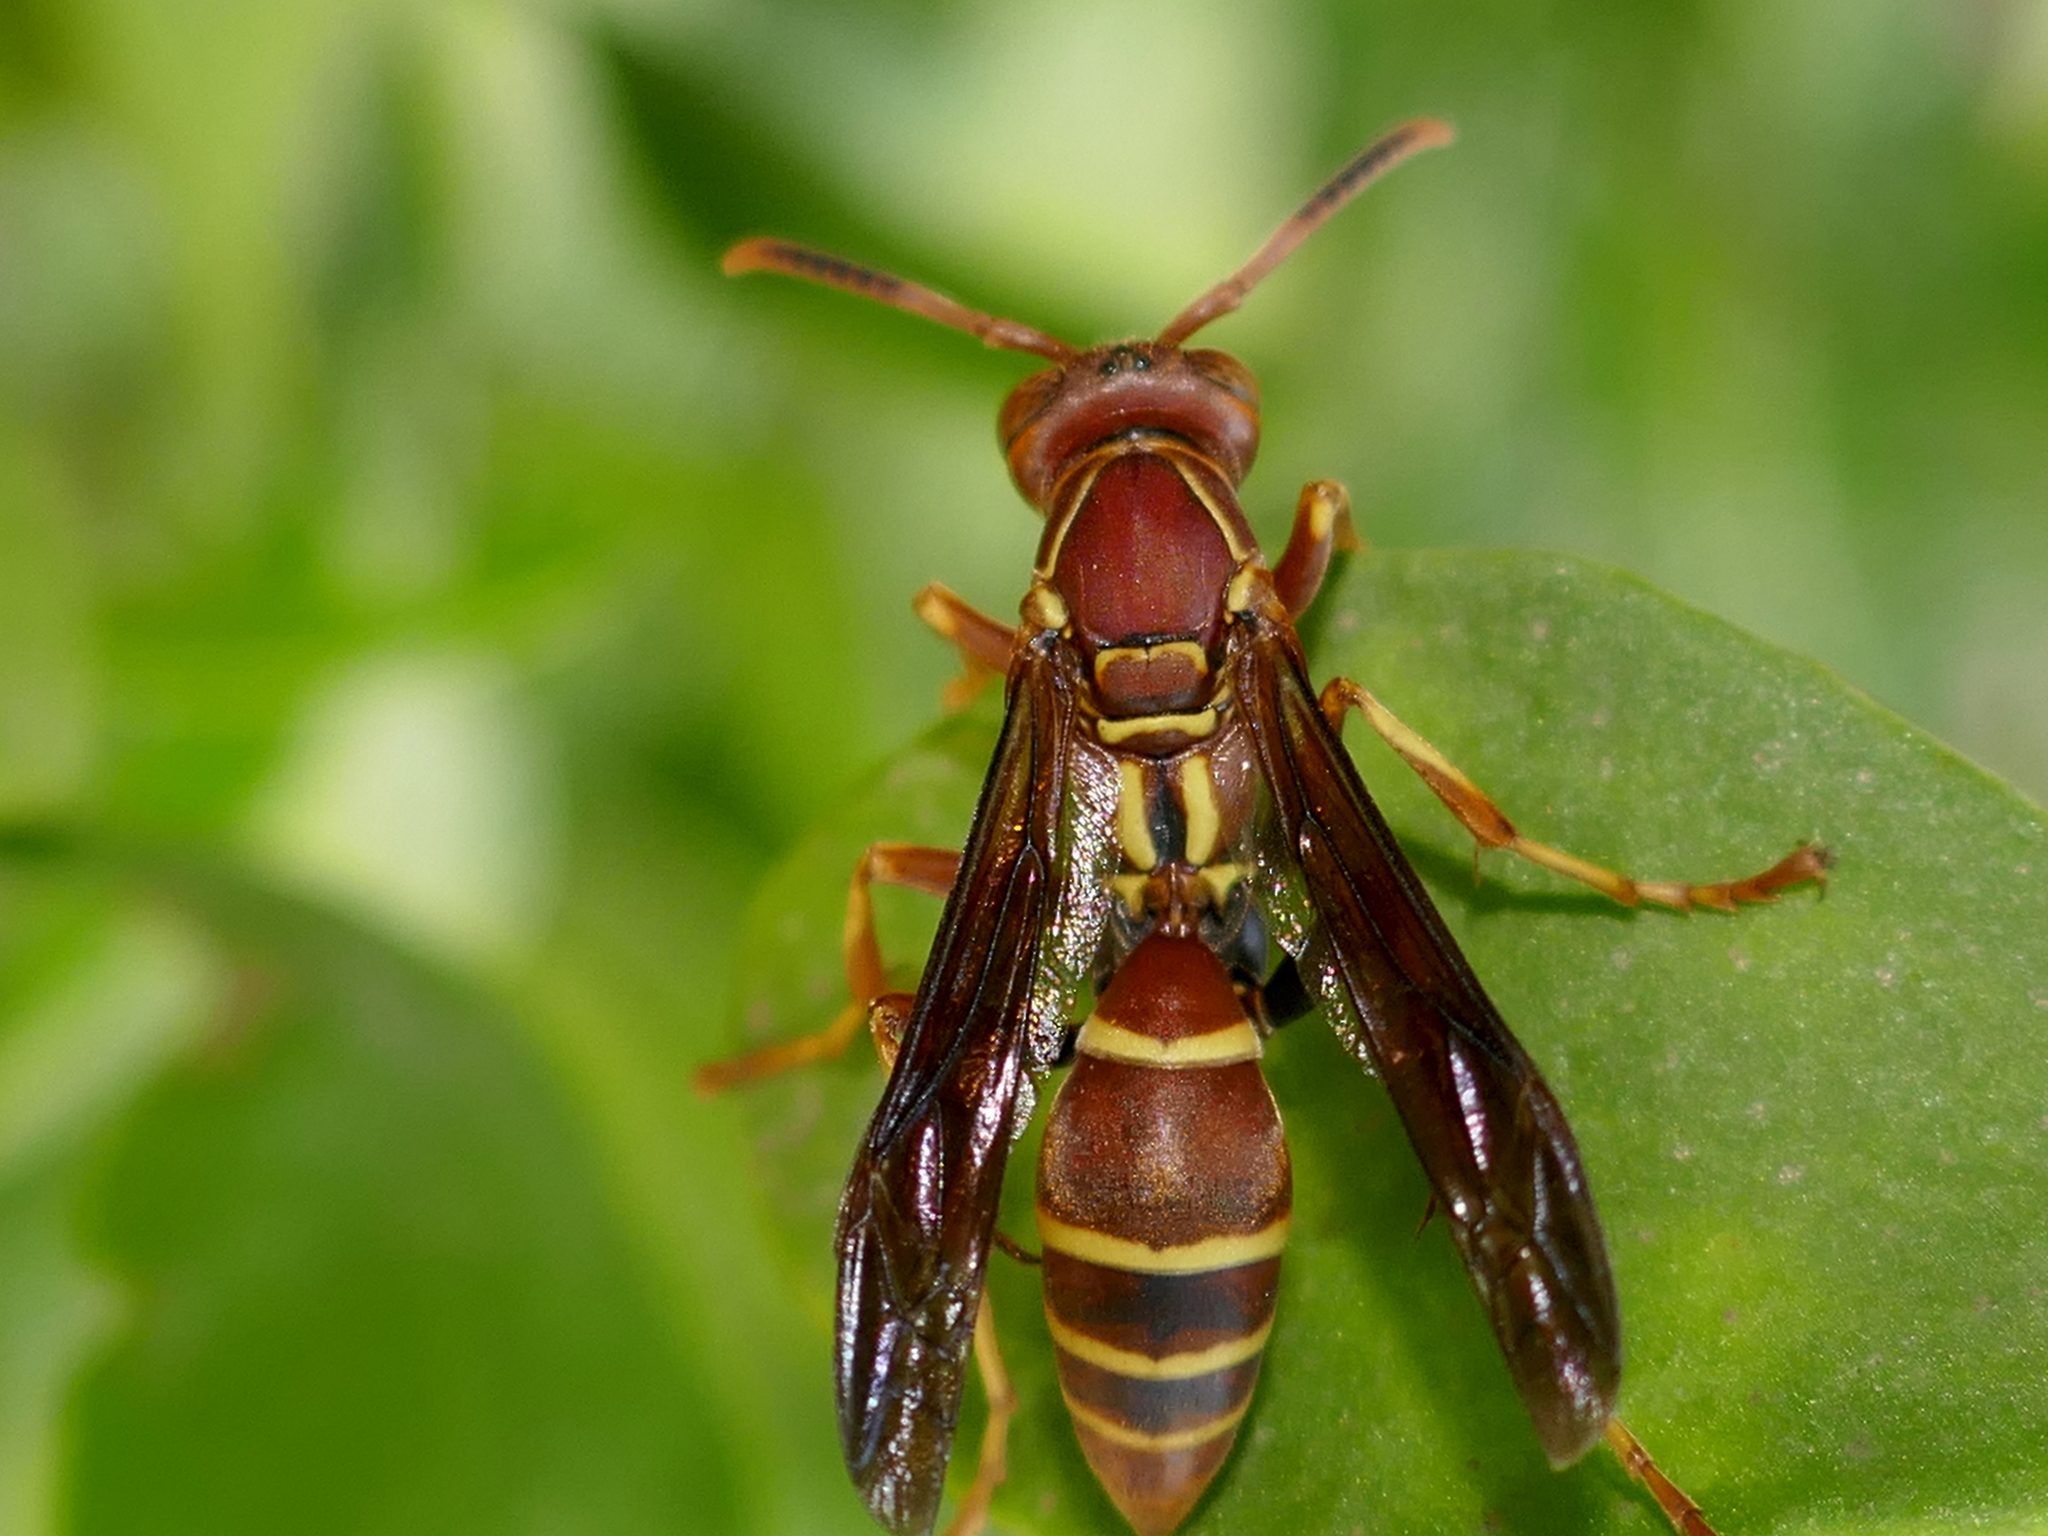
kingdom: Animalia
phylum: Arthropoda
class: Insecta
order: Hymenoptera
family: Eumenidae
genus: Polistes
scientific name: Polistes dorsalis
